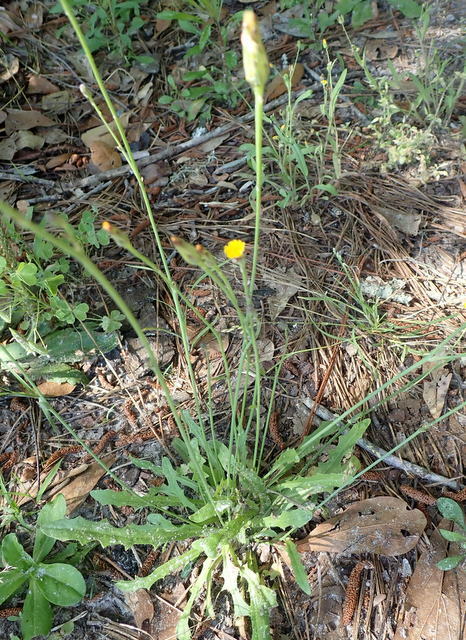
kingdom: Plantae
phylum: Tracheophyta
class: Magnoliopsida
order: Asterales
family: Asteraceae
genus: Hypochaeris
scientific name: Hypochaeris glabra
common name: Smooth catsear
